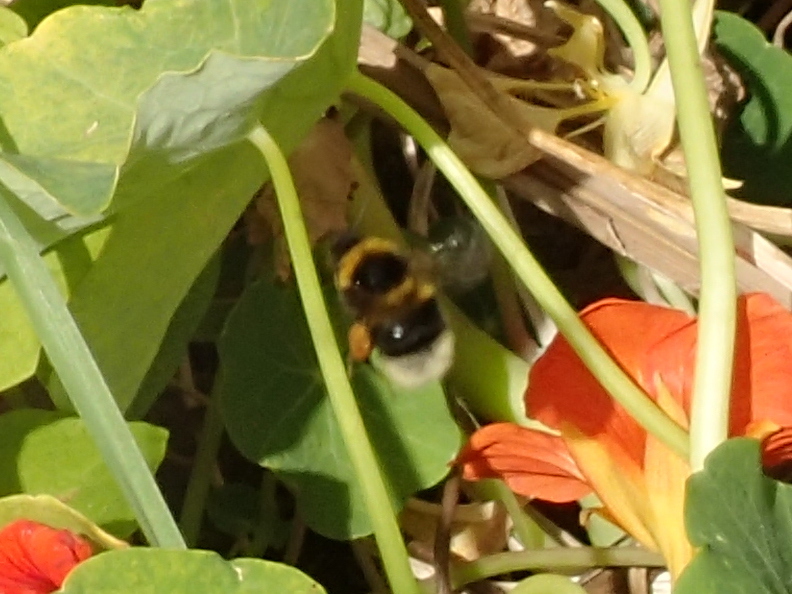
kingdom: Animalia
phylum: Arthropoda
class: Insecta
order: Hymenoptera
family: Apidae
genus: Bombus
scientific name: Bombus ruderatus
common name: Large garden bumblebee
